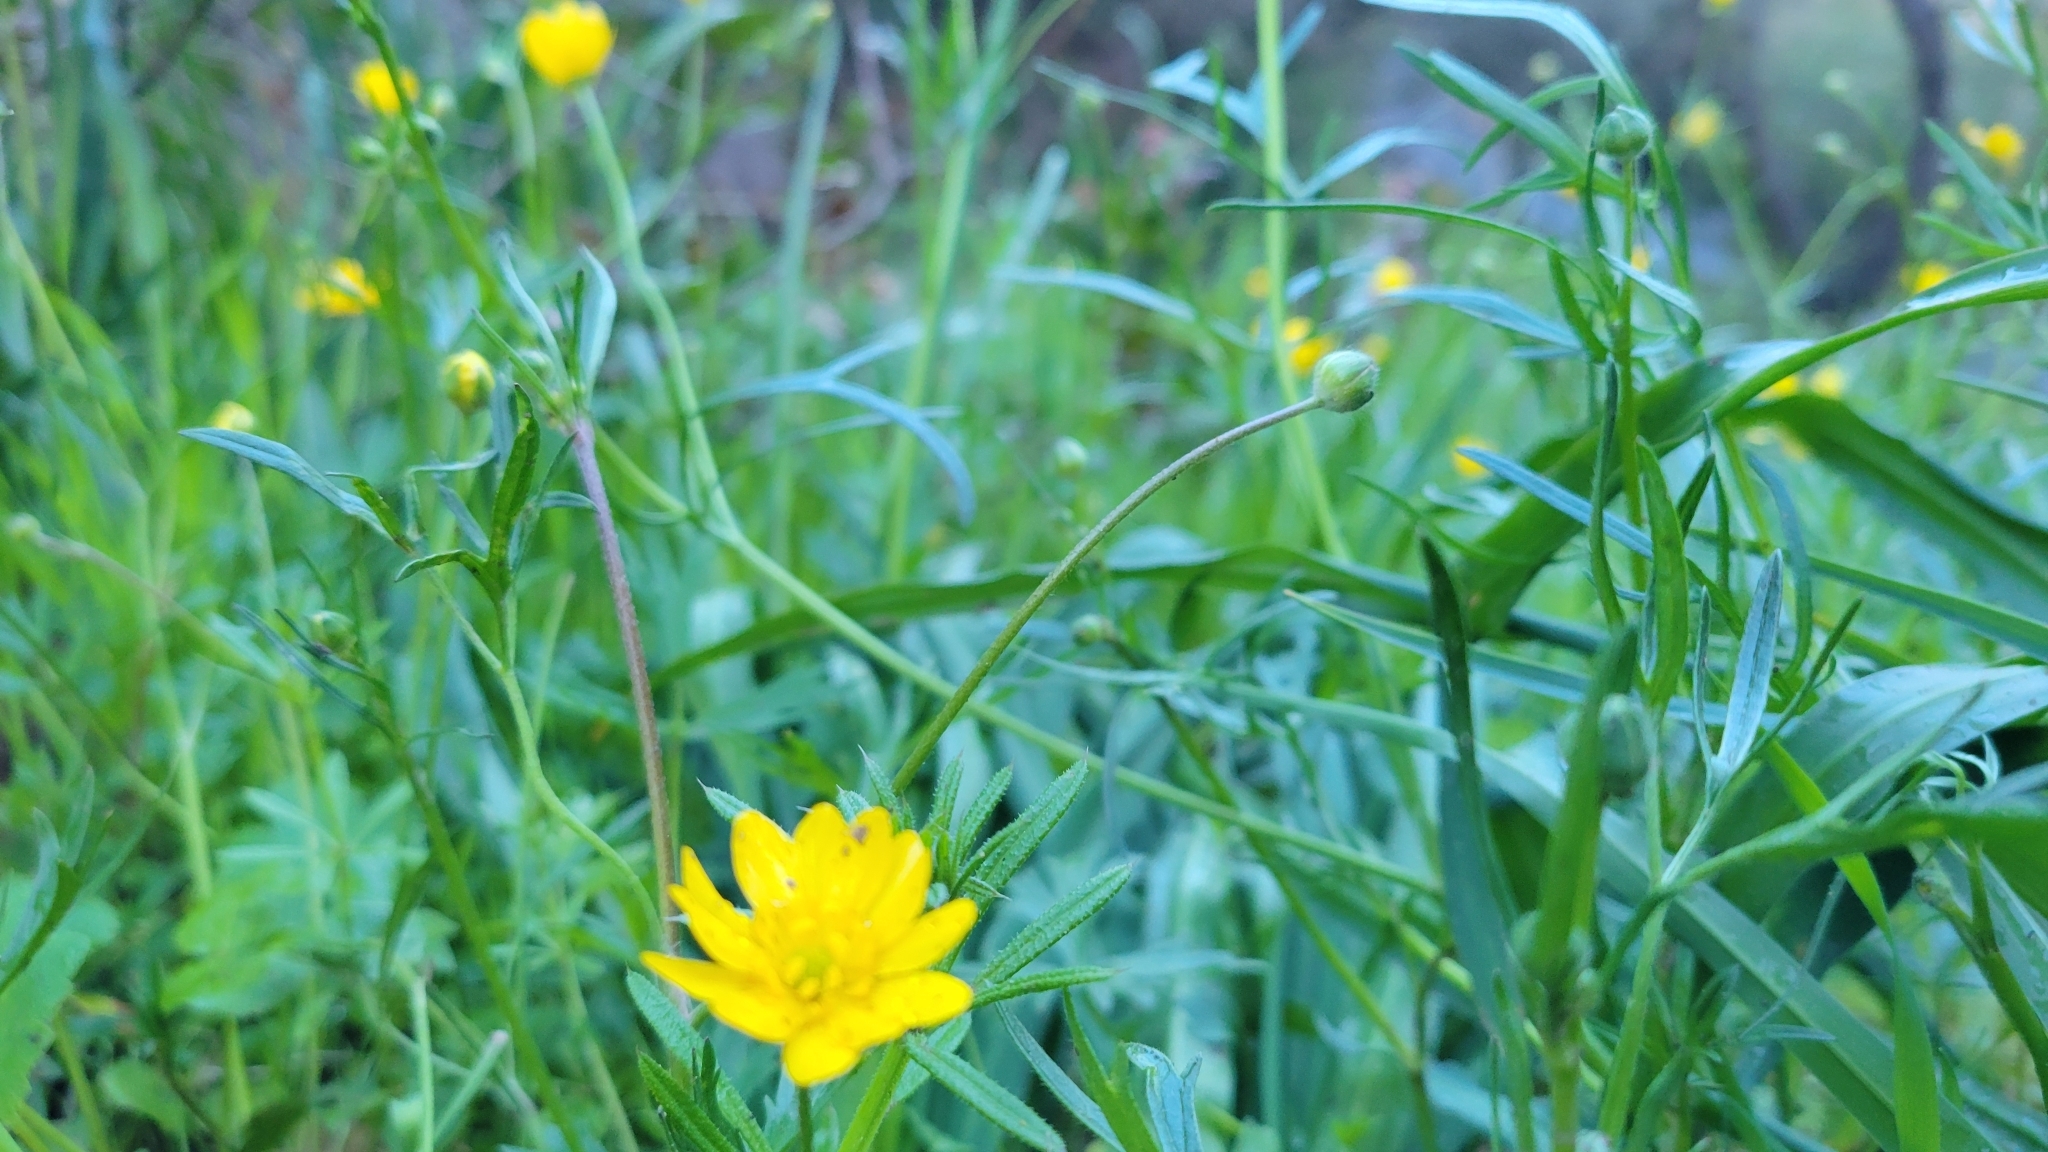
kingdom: Plantae
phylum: Tracheophyta
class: Magnoliopsida
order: Ranunculales
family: Ranunculaceae
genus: Ranunculus
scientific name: Ranunculus californicus
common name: California buttercup
